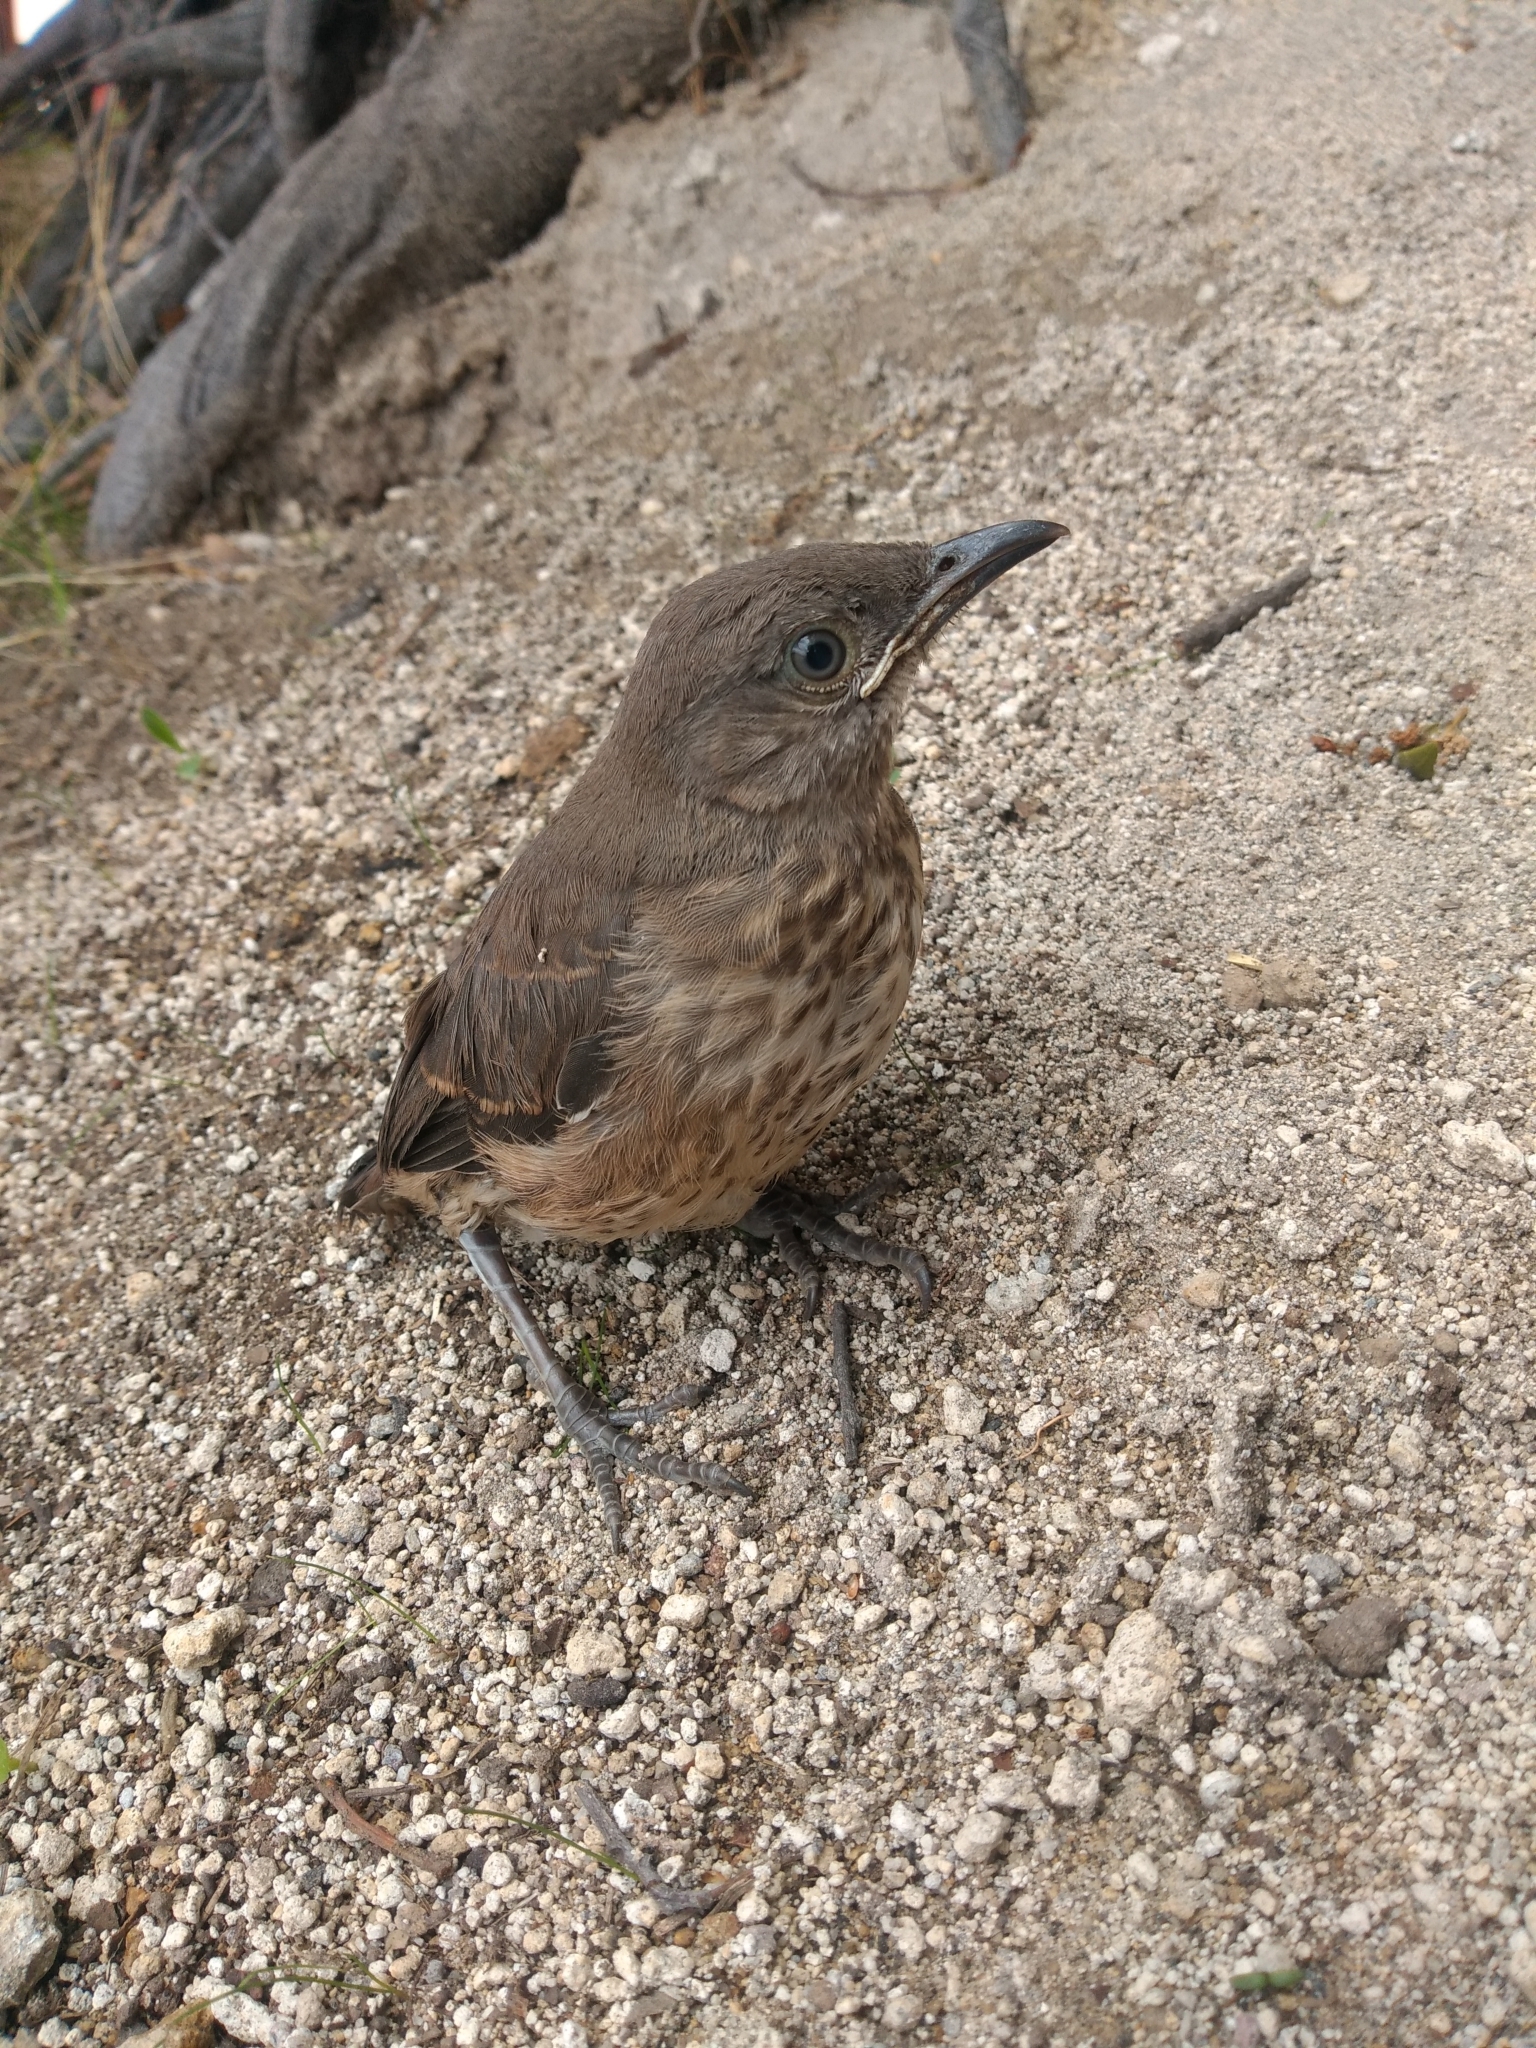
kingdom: Animalia
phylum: Chordata
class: Aves
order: Passeriformes
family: Troglodytidae
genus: Troglodytes
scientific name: Troglodytes aedon
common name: House wren
